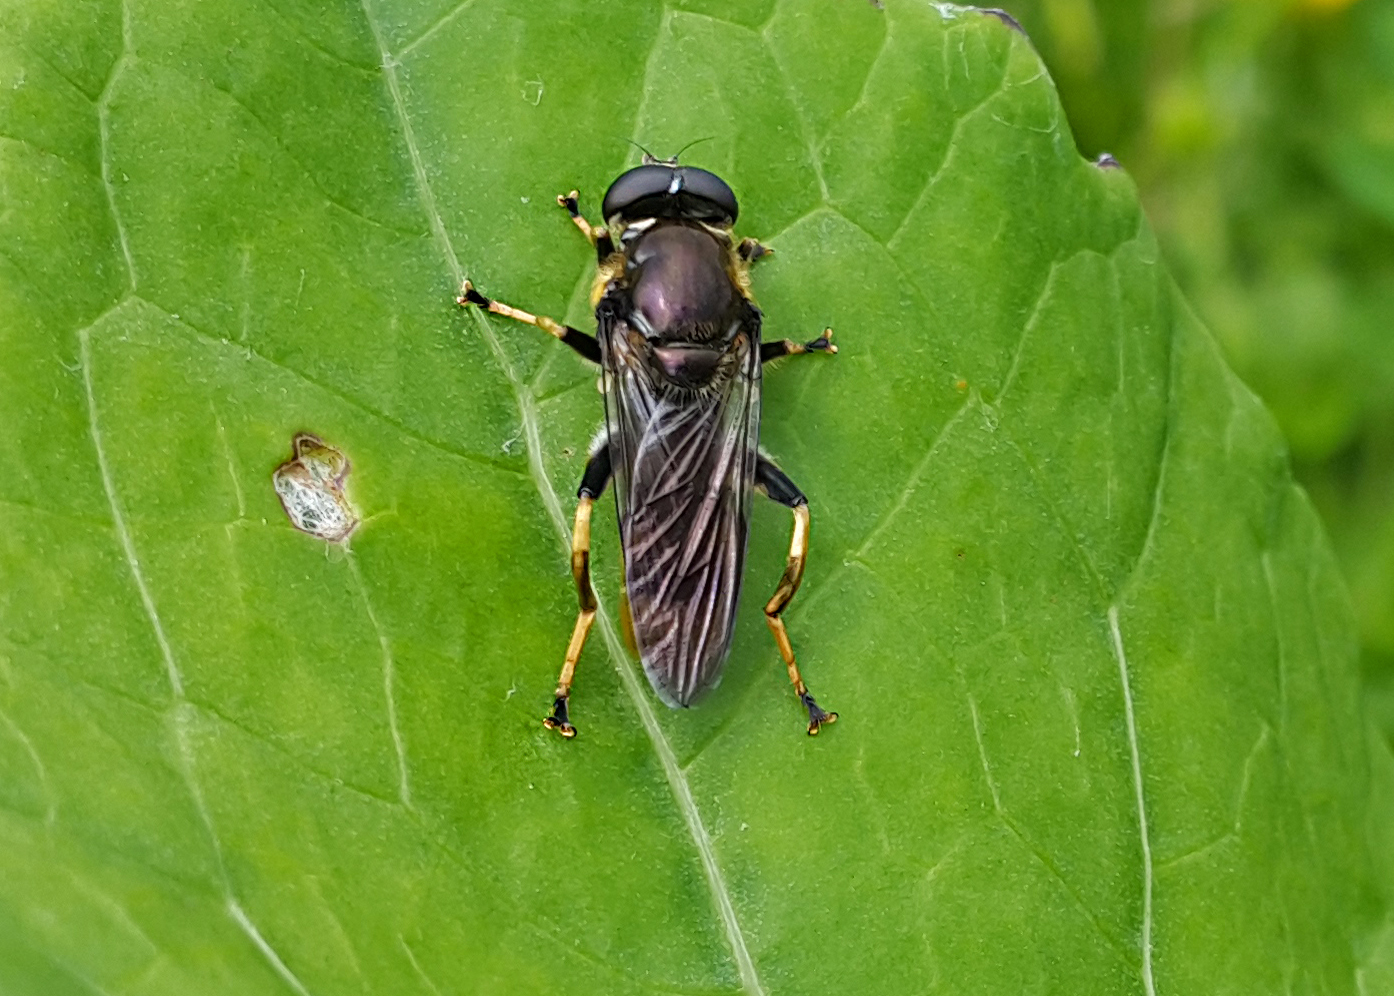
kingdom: Animalia
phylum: Arthropoda
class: Insecta
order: Diptera
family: Syrphidae
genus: Xylota
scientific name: Xylota sylvarum
